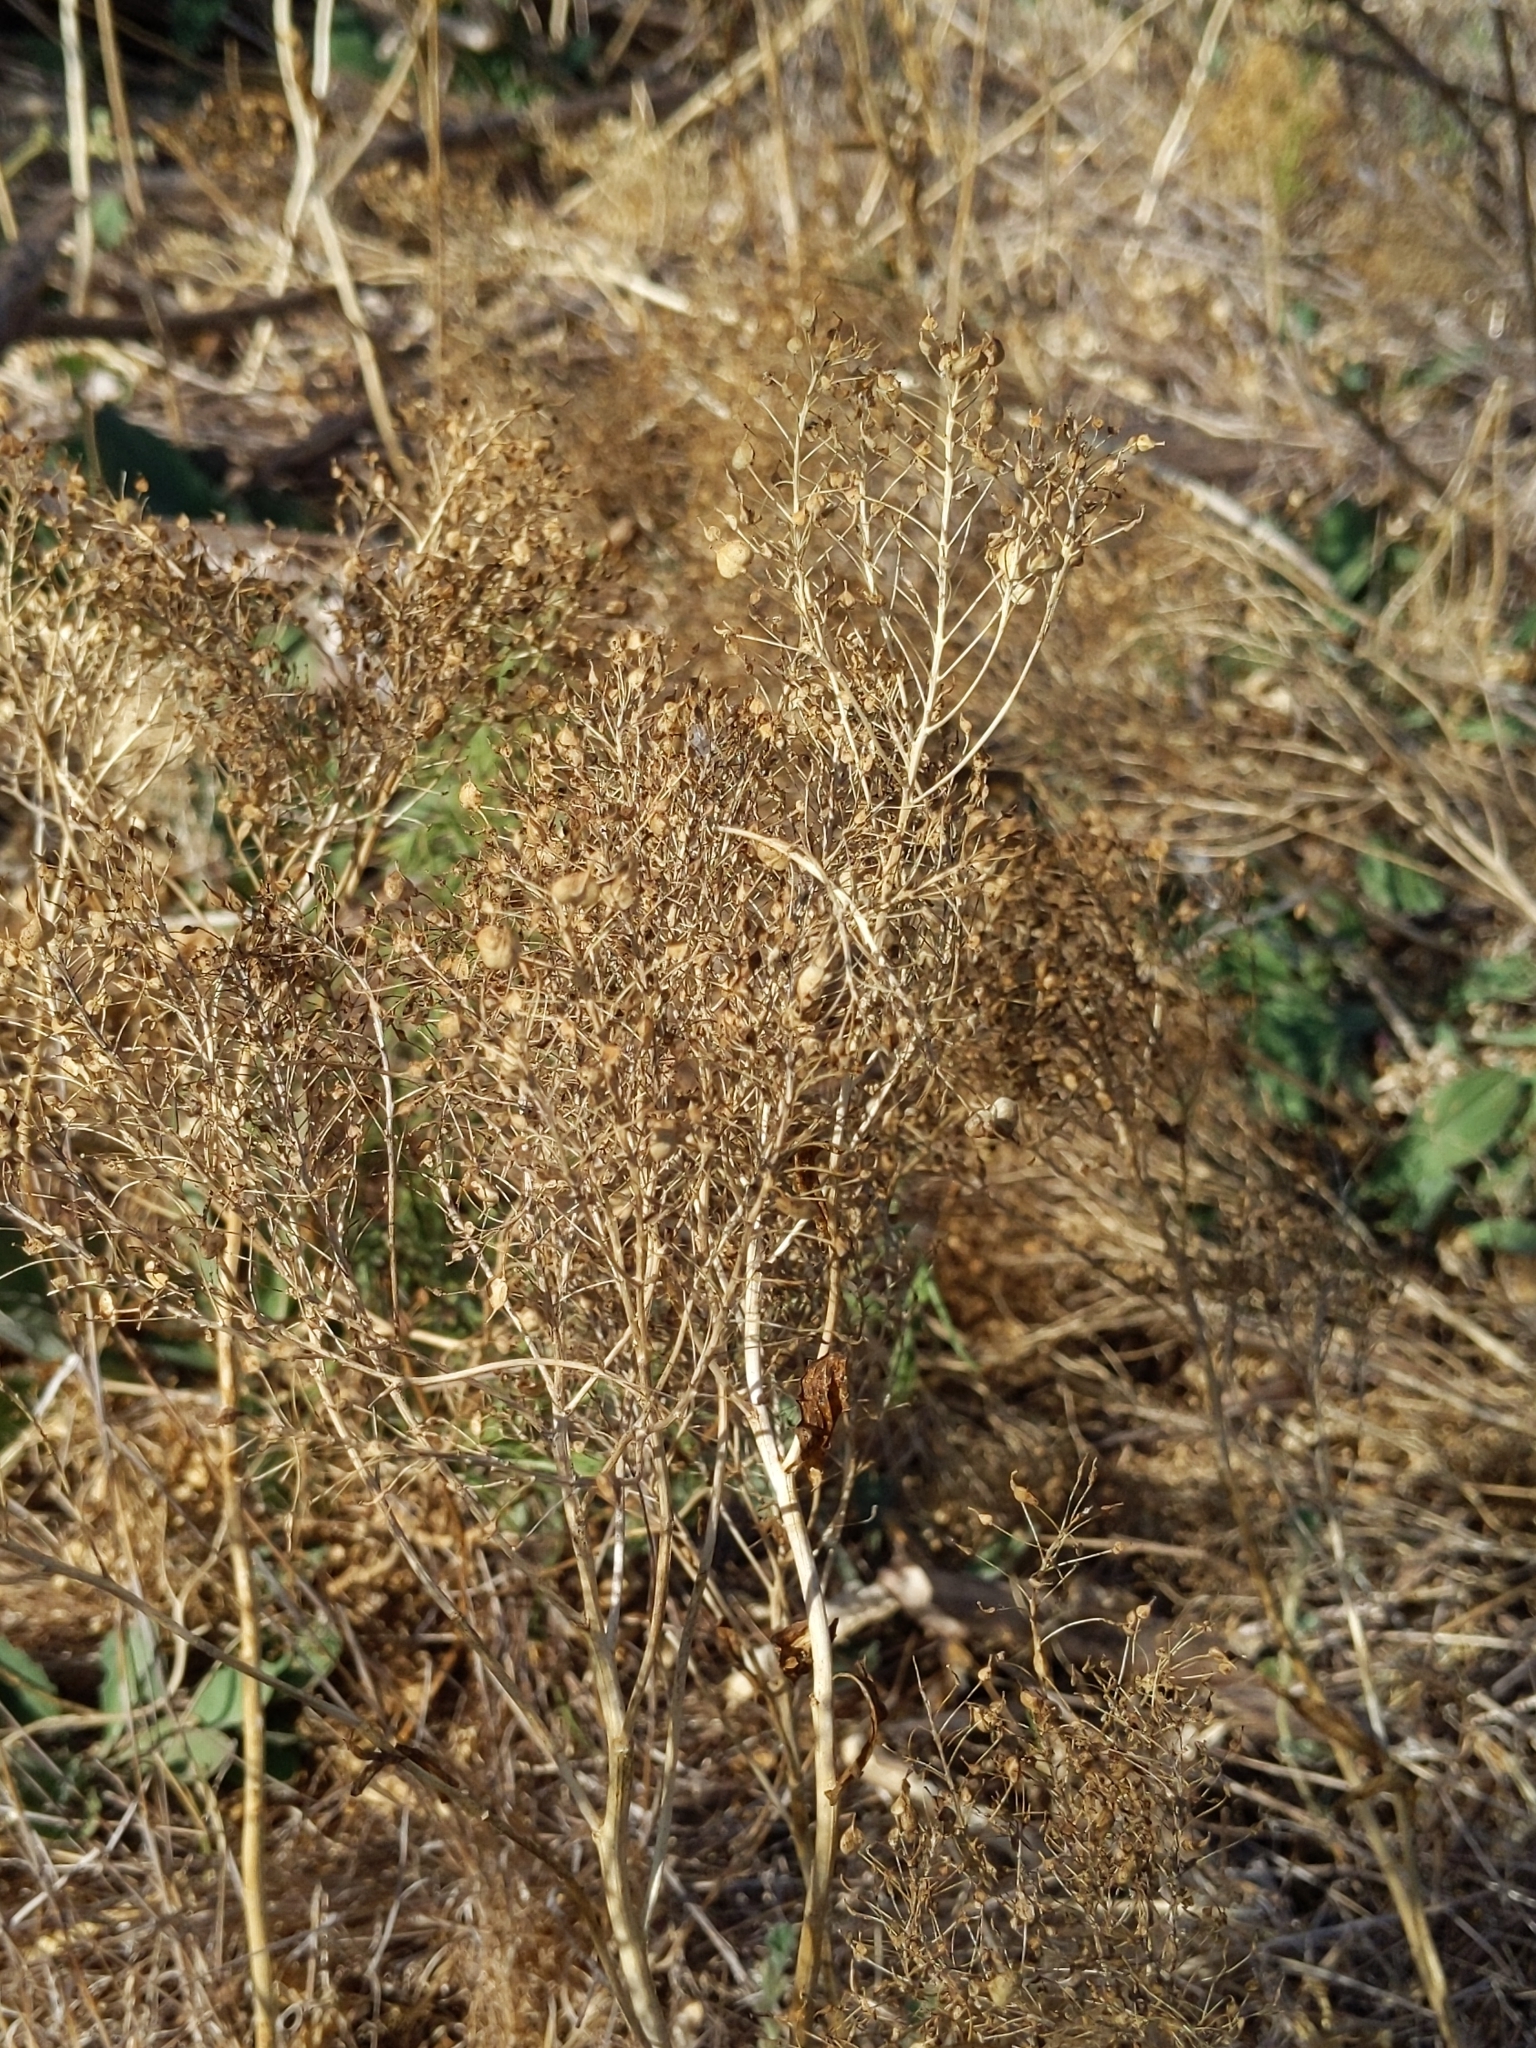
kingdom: Plantae
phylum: Tracheophyta
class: Magnoliopsida
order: Brassicales
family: Brassicaceae
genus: Lepidium
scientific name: Lepidium draba
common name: Hoary cress
